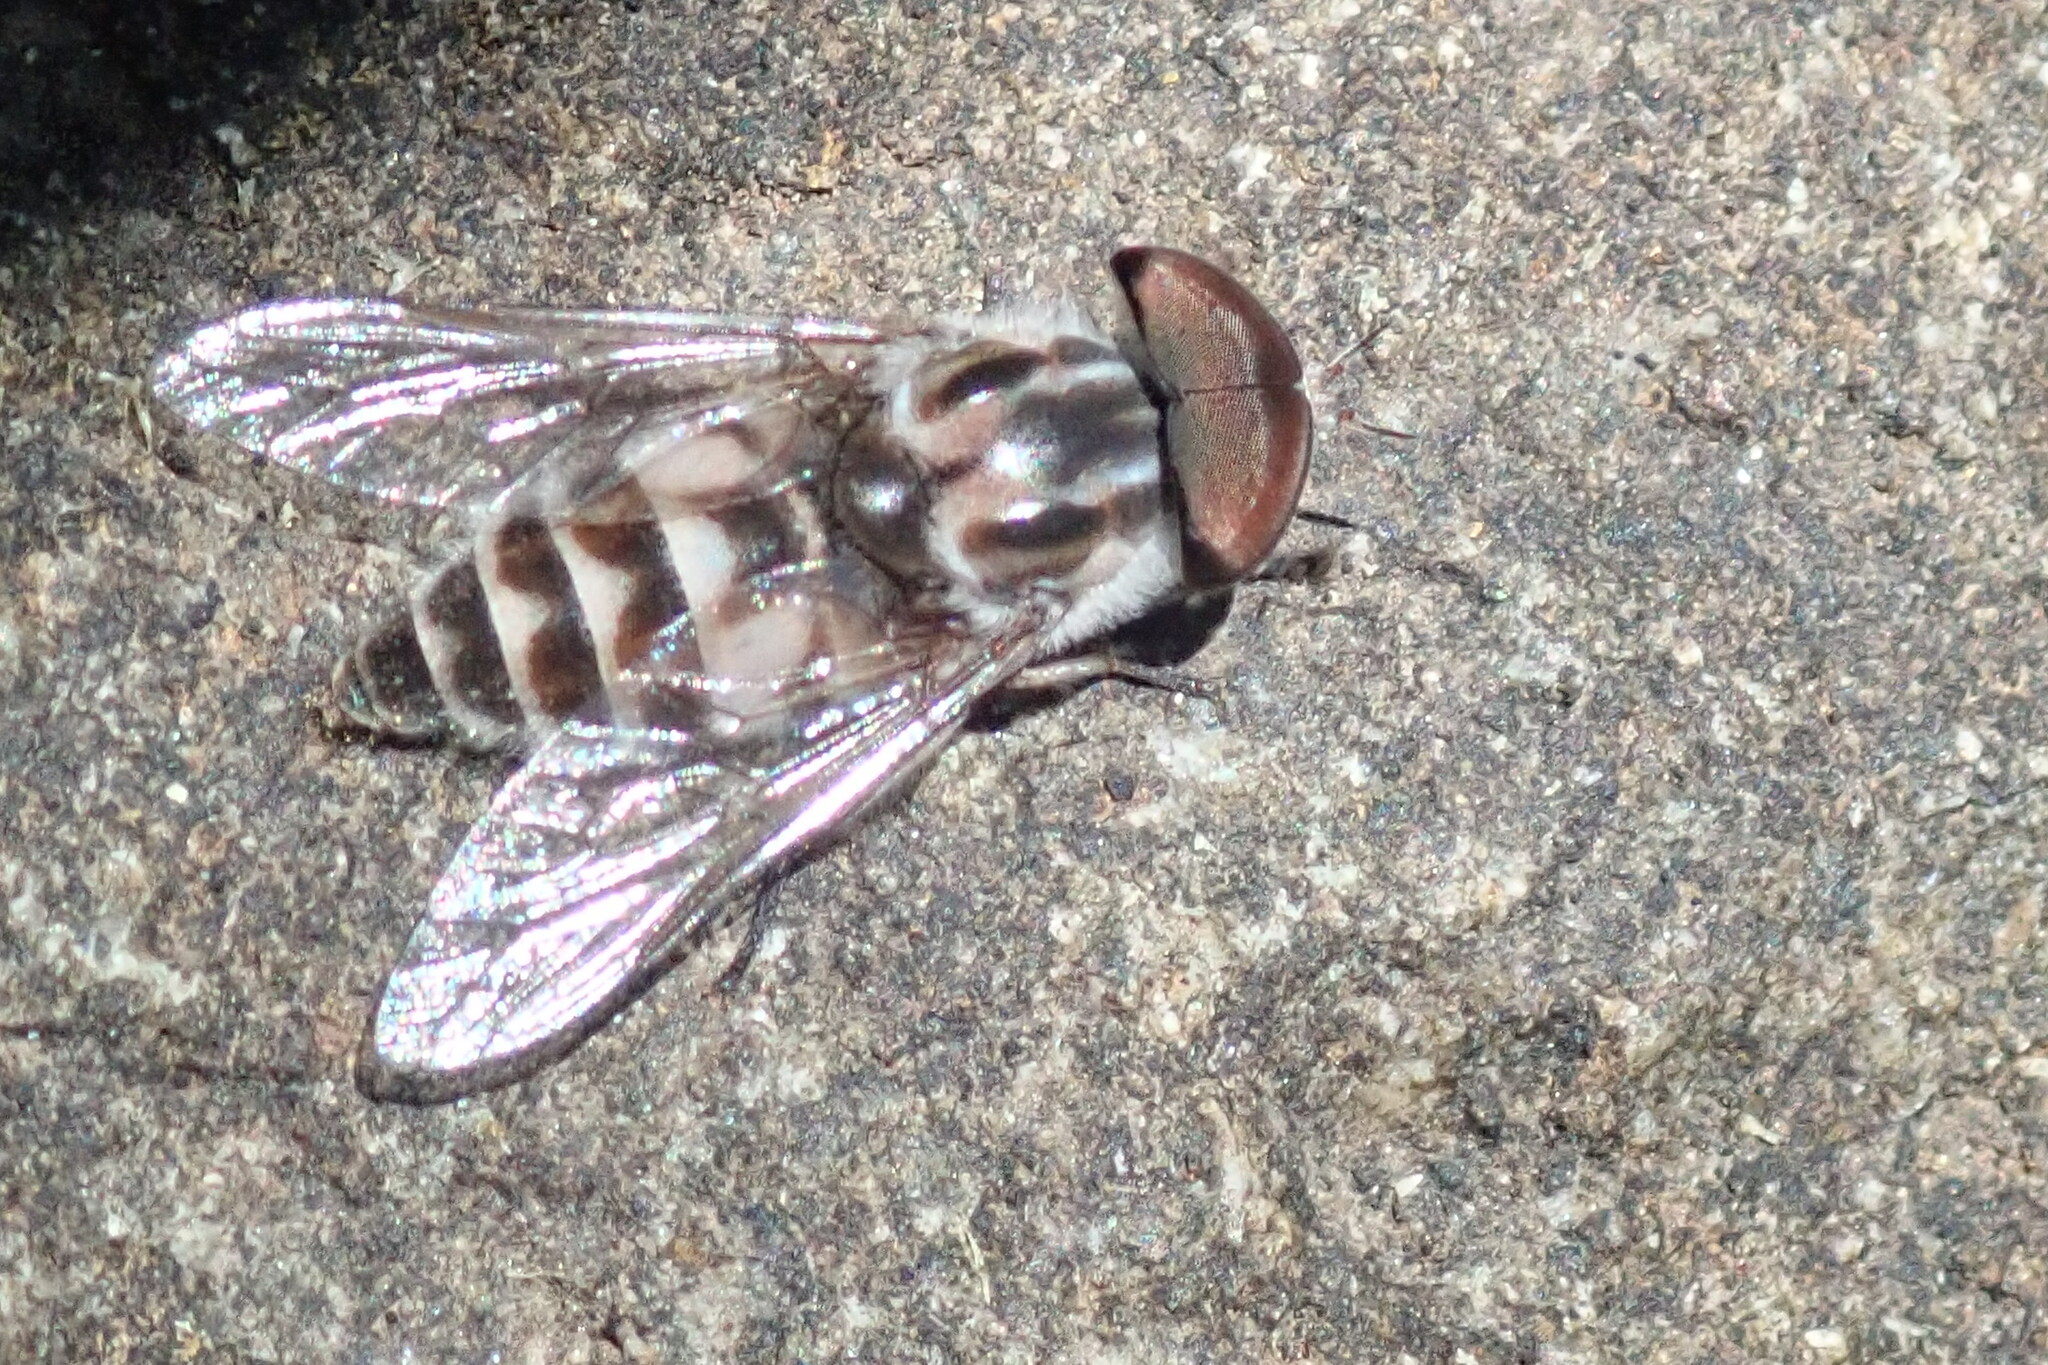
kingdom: Animalia
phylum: Arthropoda
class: Insecta
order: Diptera
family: Tabanidae
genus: Tabanus
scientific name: Tabanus atrimanus
